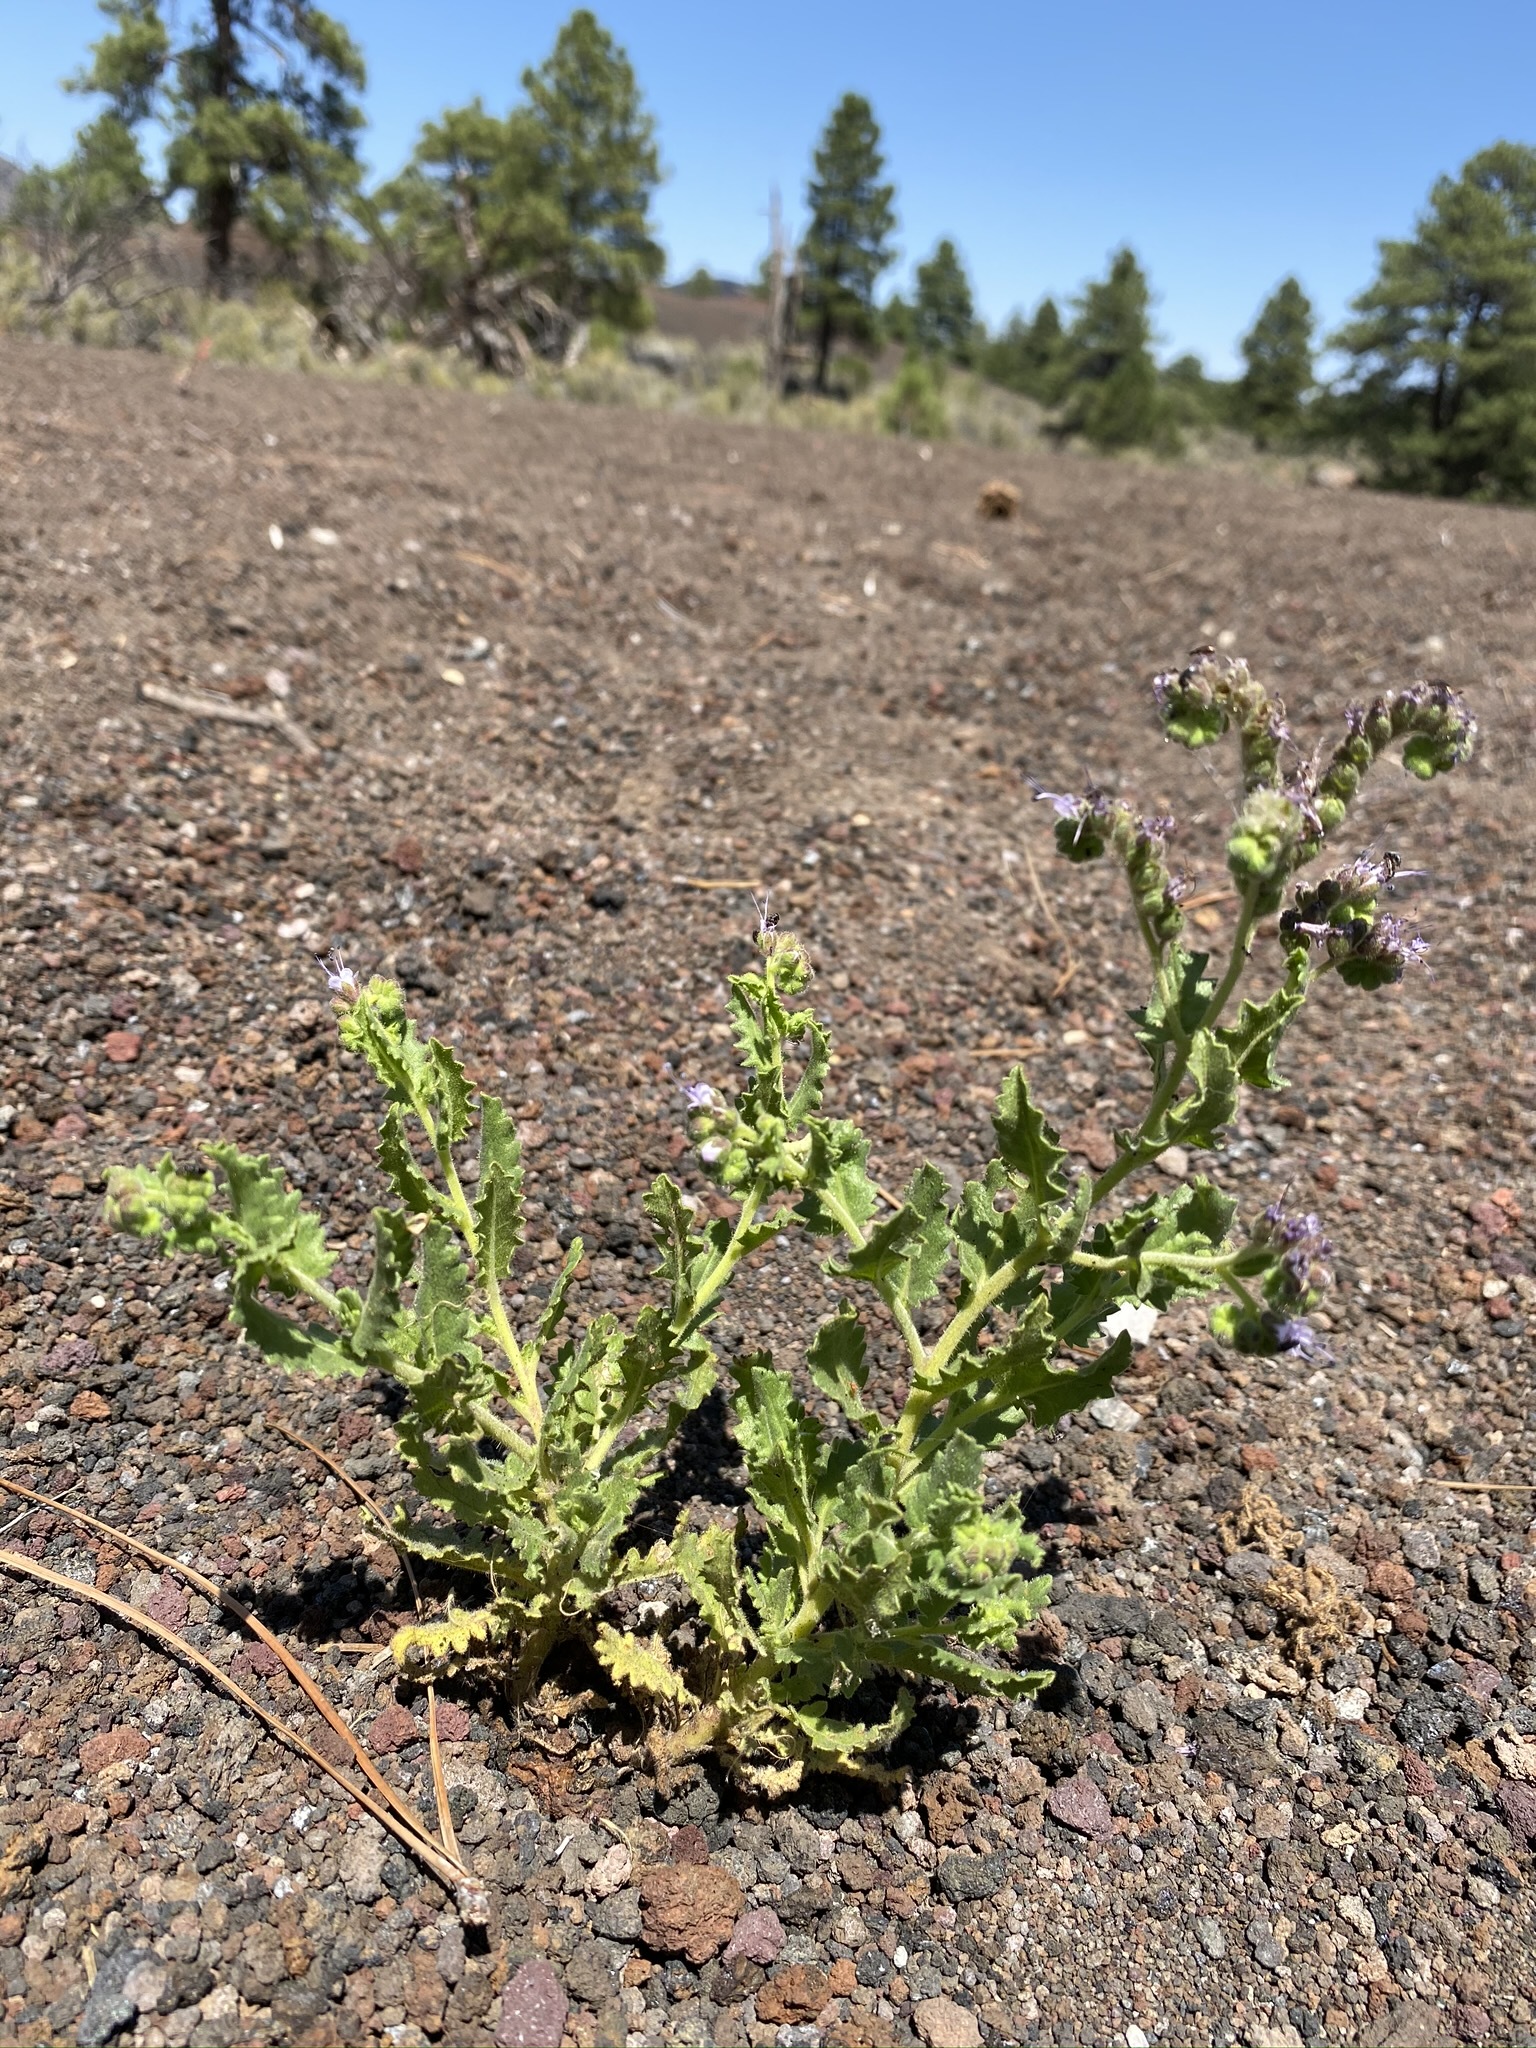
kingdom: Plantae
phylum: Tracheophyta
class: Magnoliopsida
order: Boraginales
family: Hydrophyllaceae
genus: Phacelia
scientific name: Phacelia serrata
